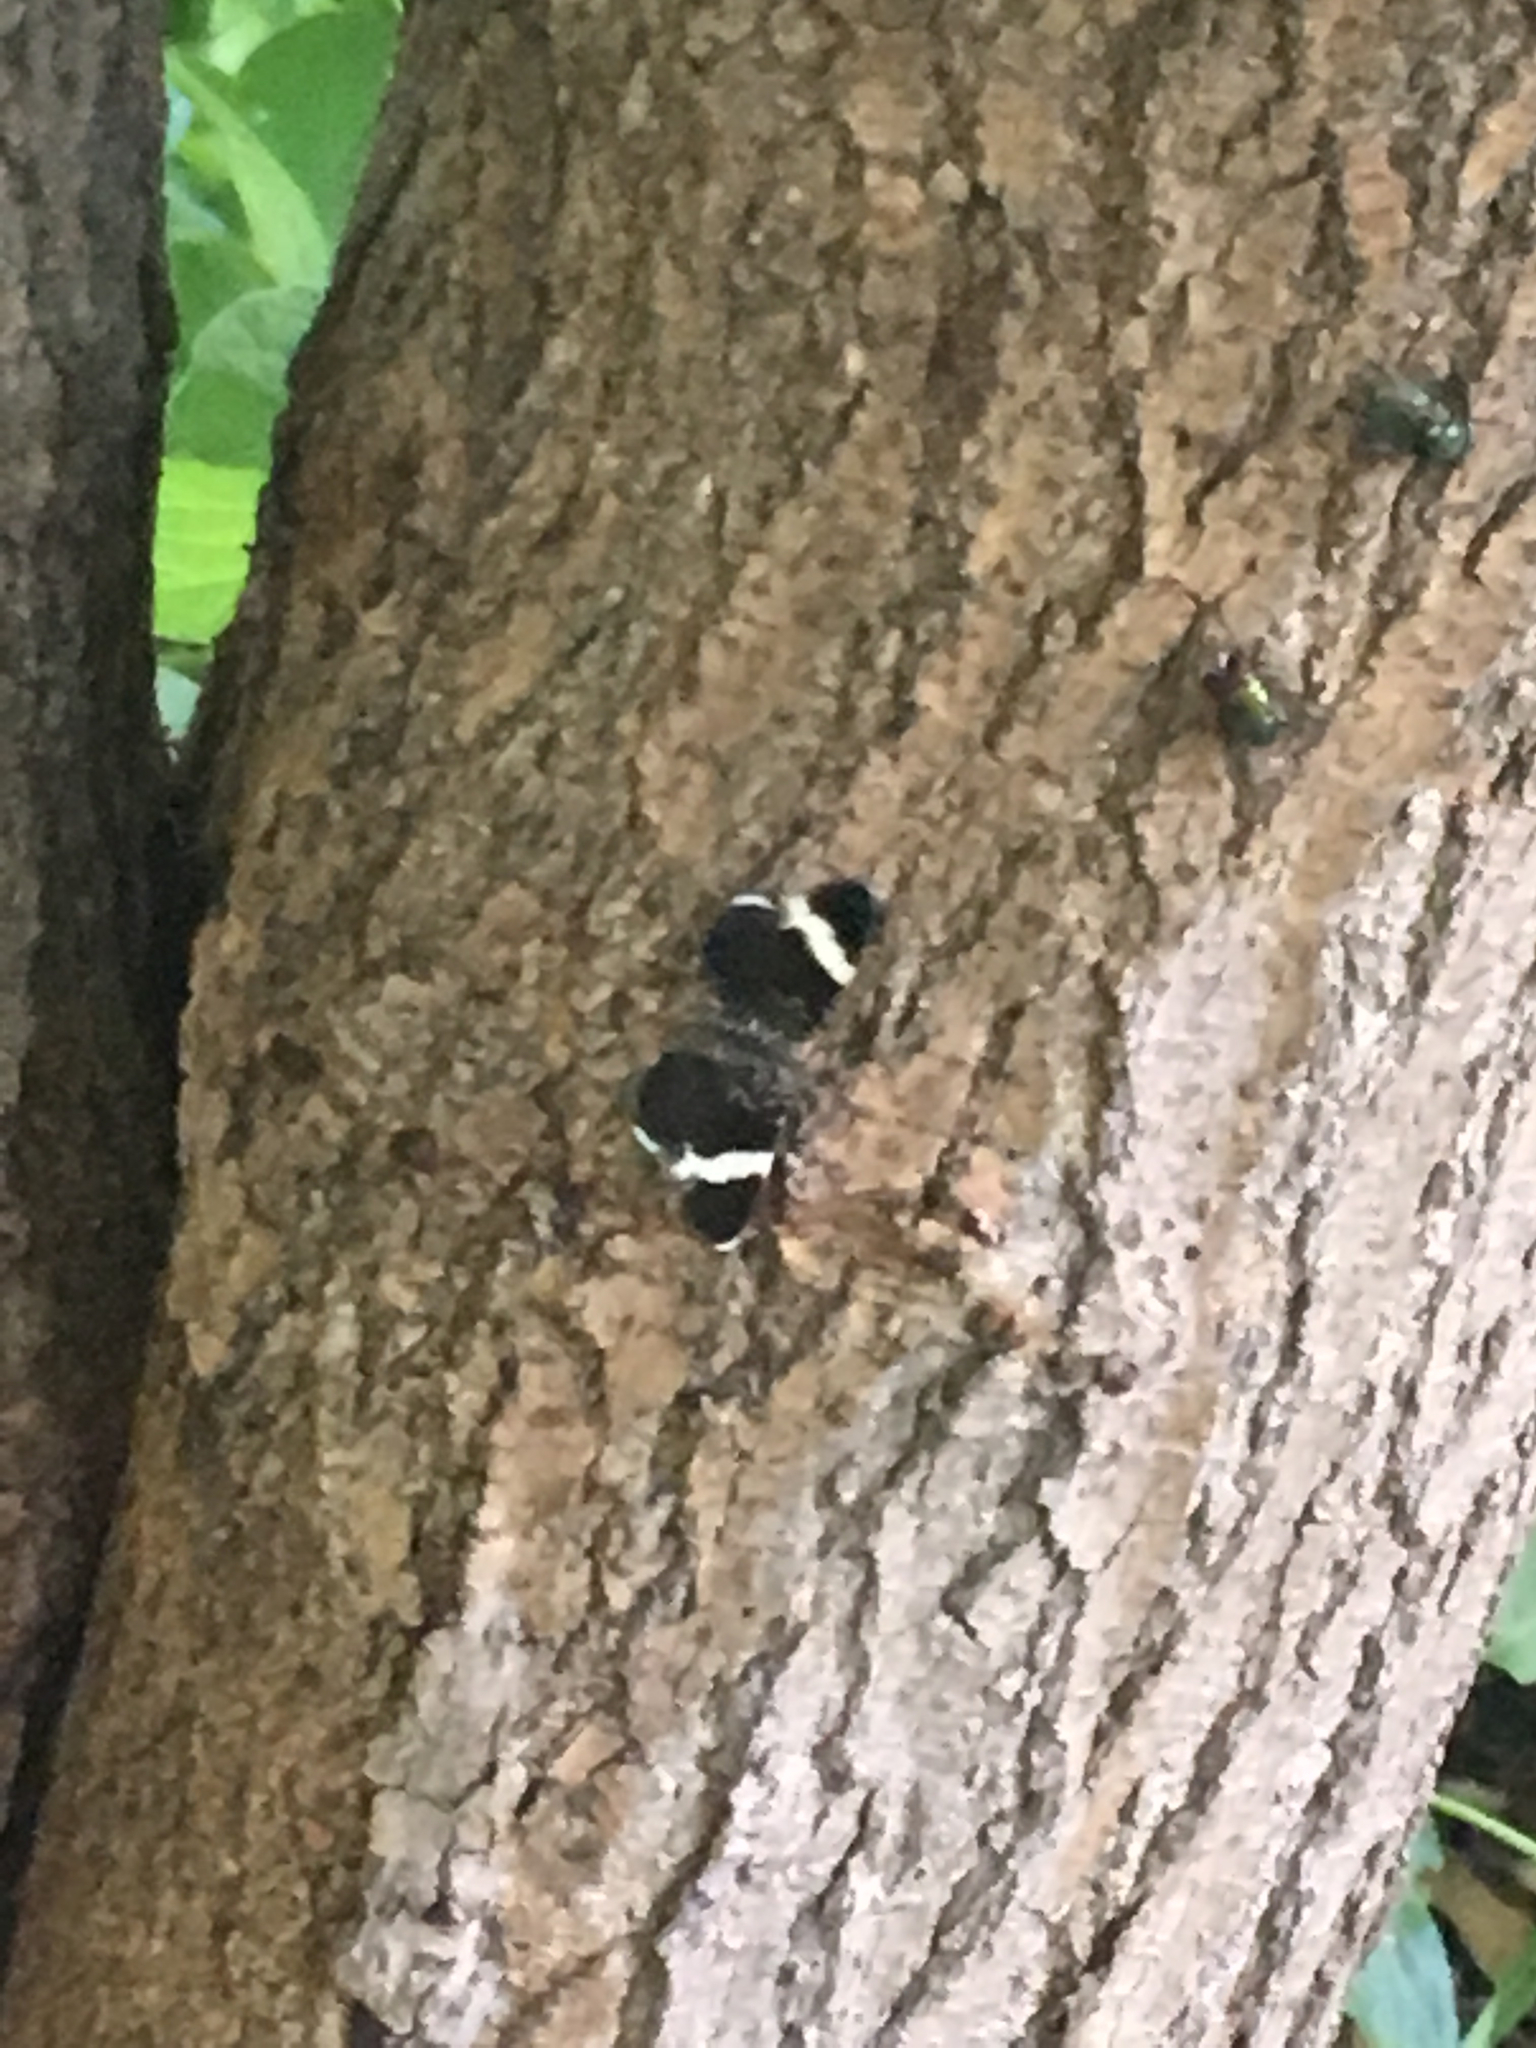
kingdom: Animalia
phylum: Arthropoda
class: Insecta
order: Lepidoptera
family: Geometridae
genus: Trichodezia
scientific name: Trichodezia albovittata
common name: White striped black
